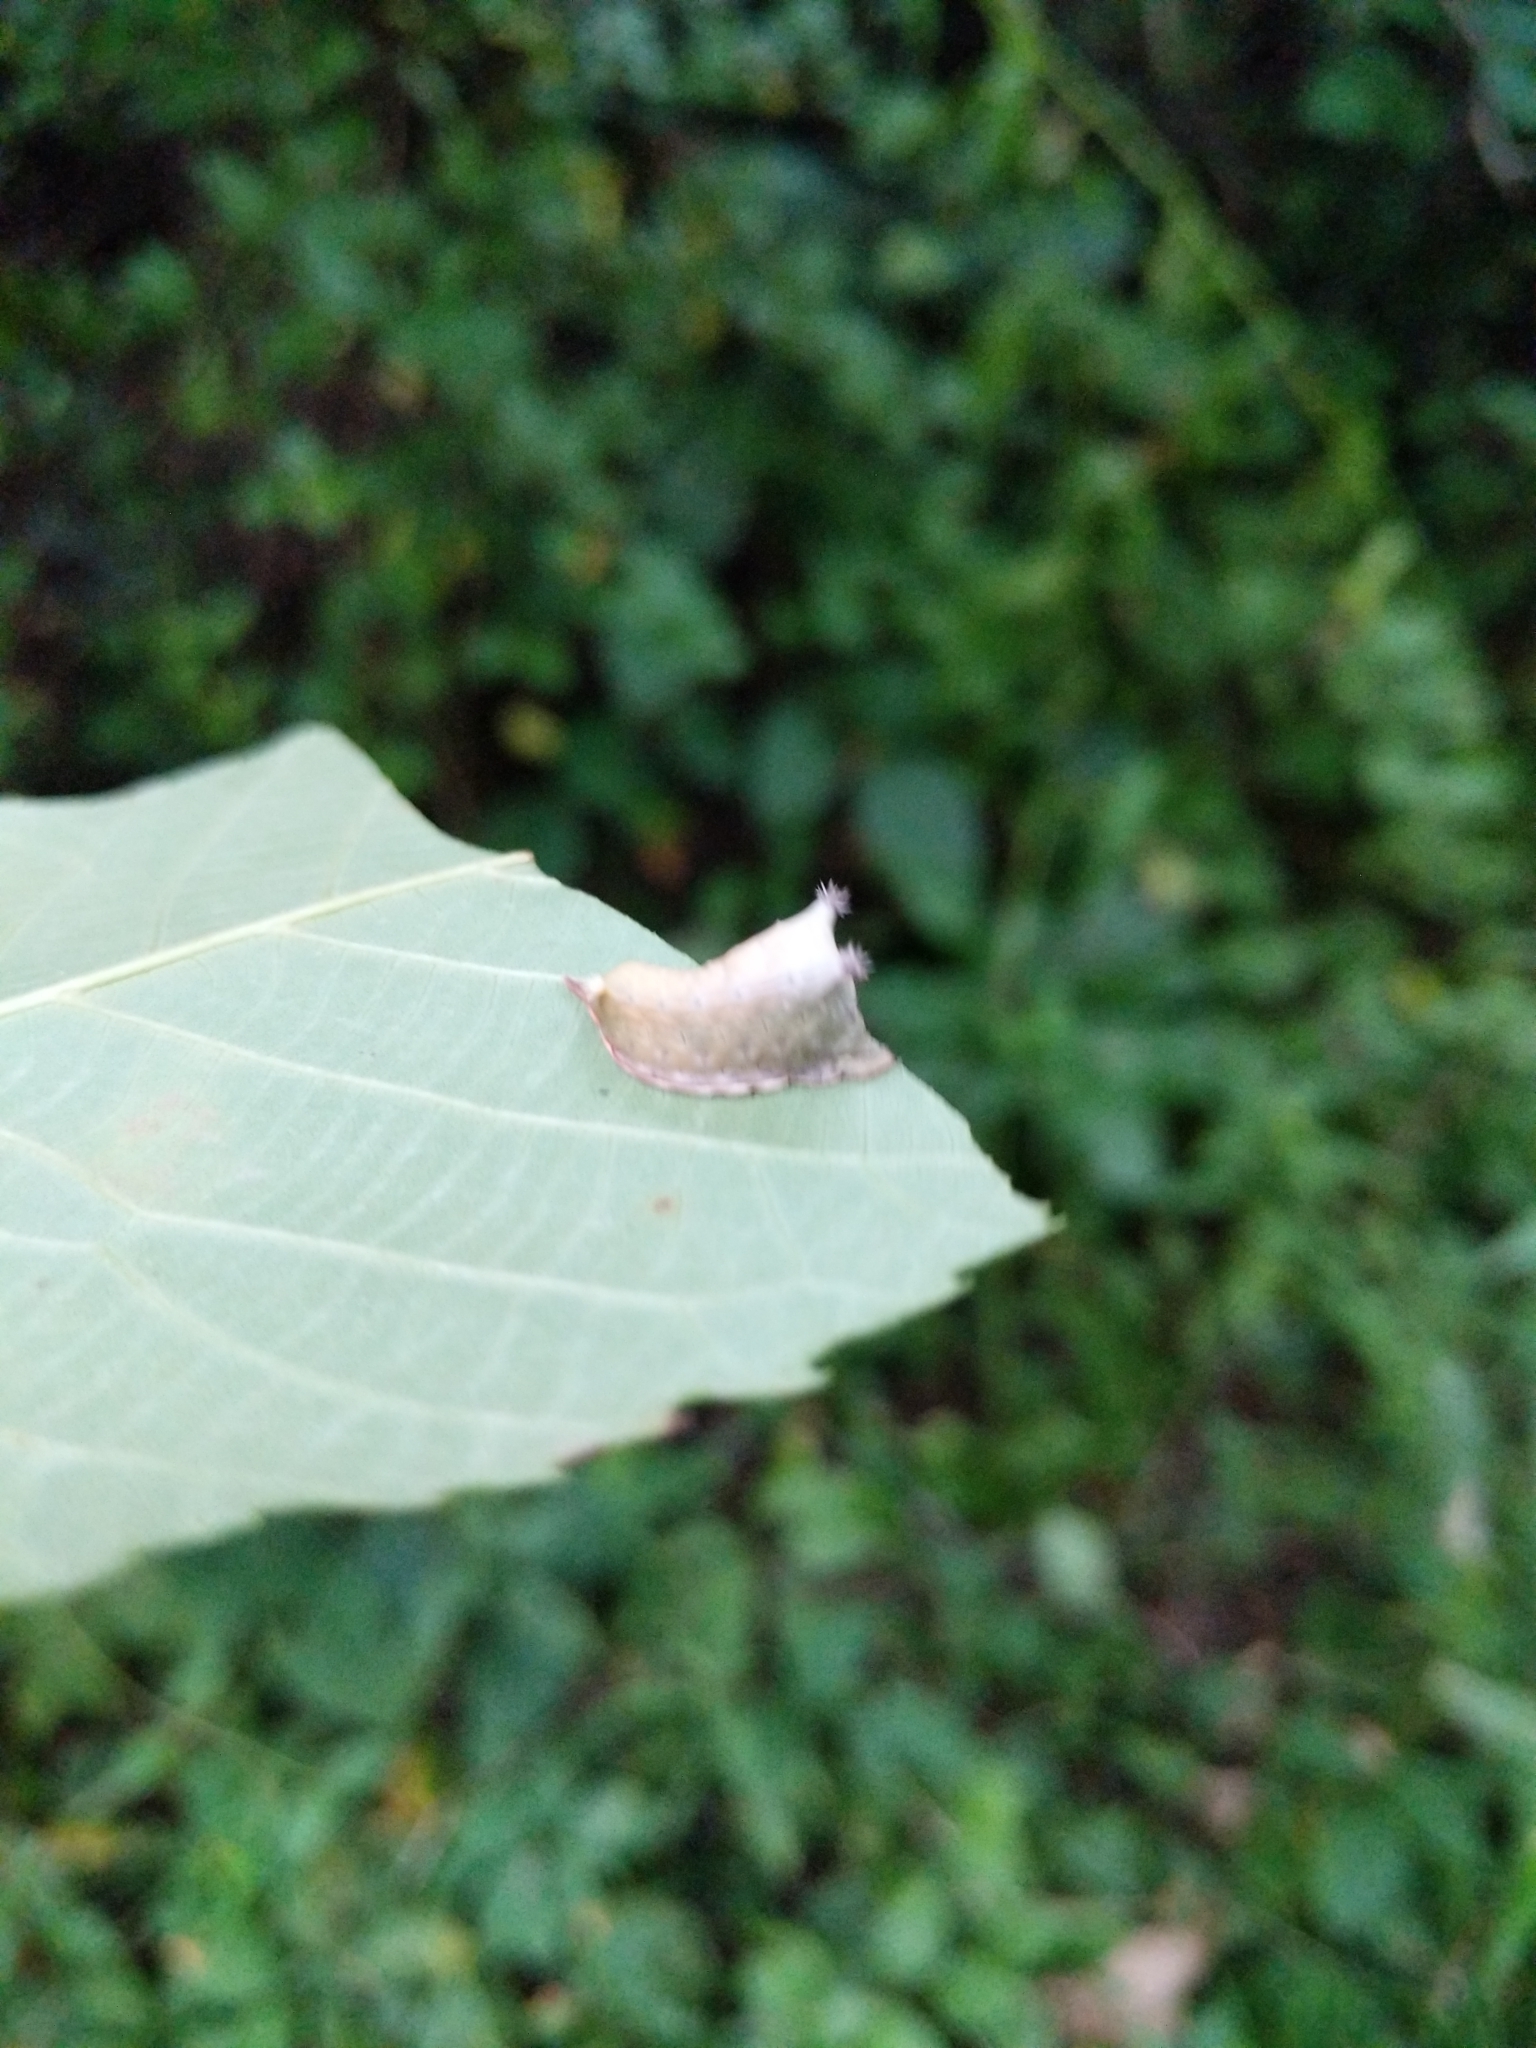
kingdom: Animalia
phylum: Arthropoda
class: Insecta
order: Lepidoptera
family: Limacodidae
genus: Parasa
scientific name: Parasa chloris
